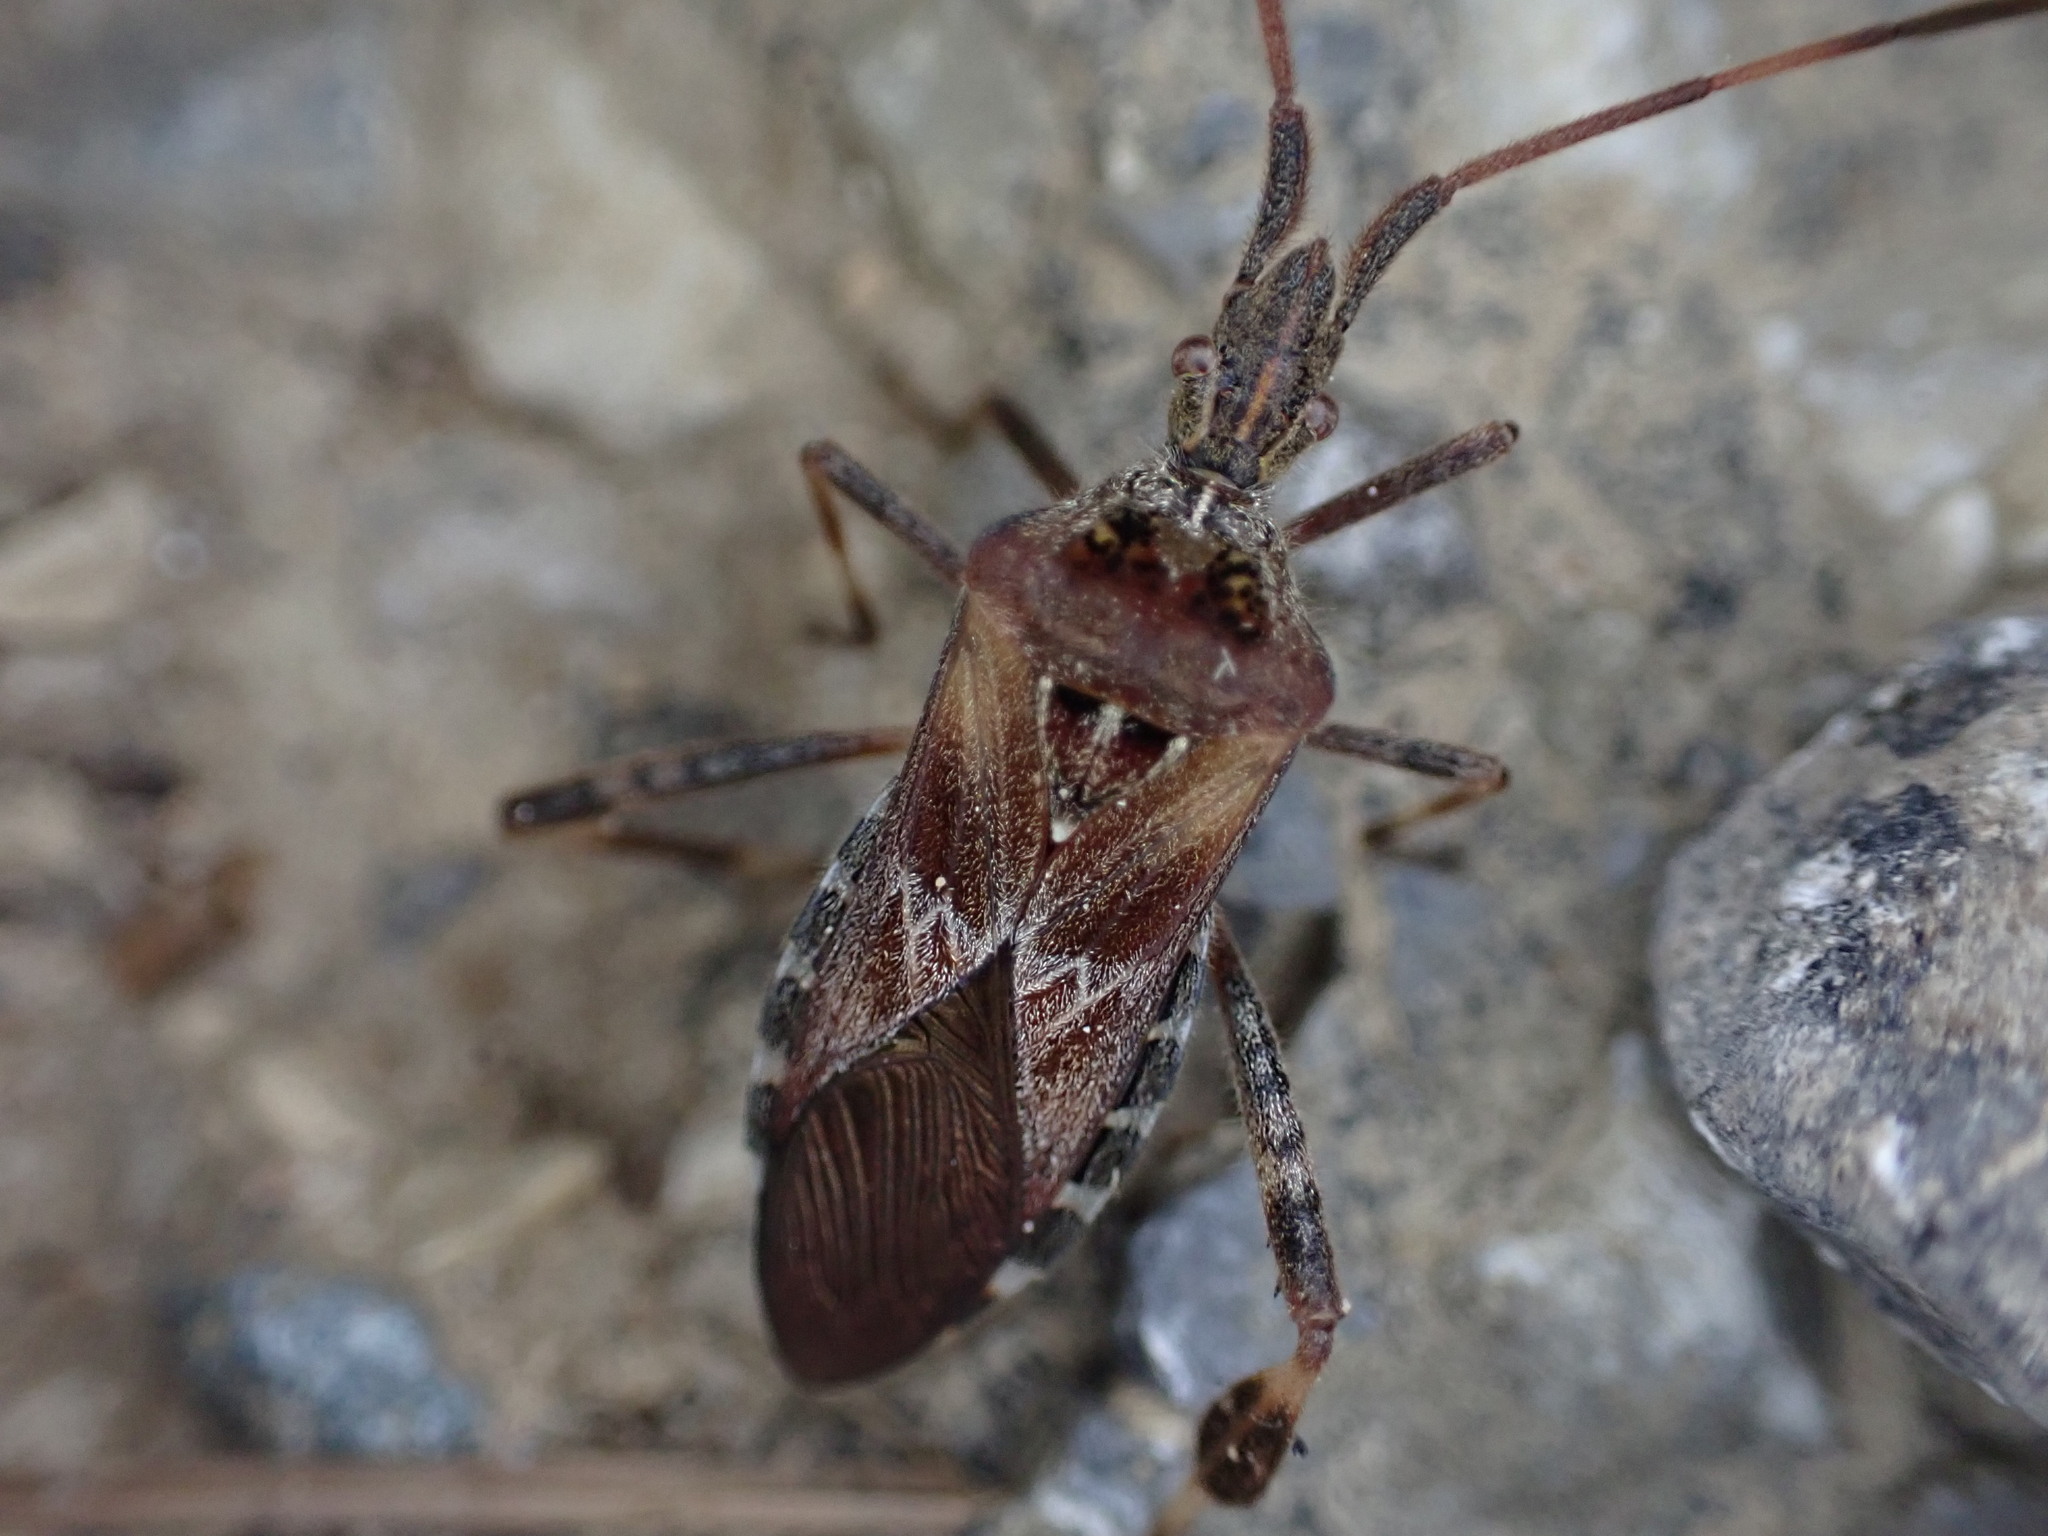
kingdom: Animalia
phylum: Arthropoda
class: Insecta
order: Hemiptera
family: Coreidae
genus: Leptoglossus
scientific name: Leptoglossus occidentalis
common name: Western conifer-seed bug
